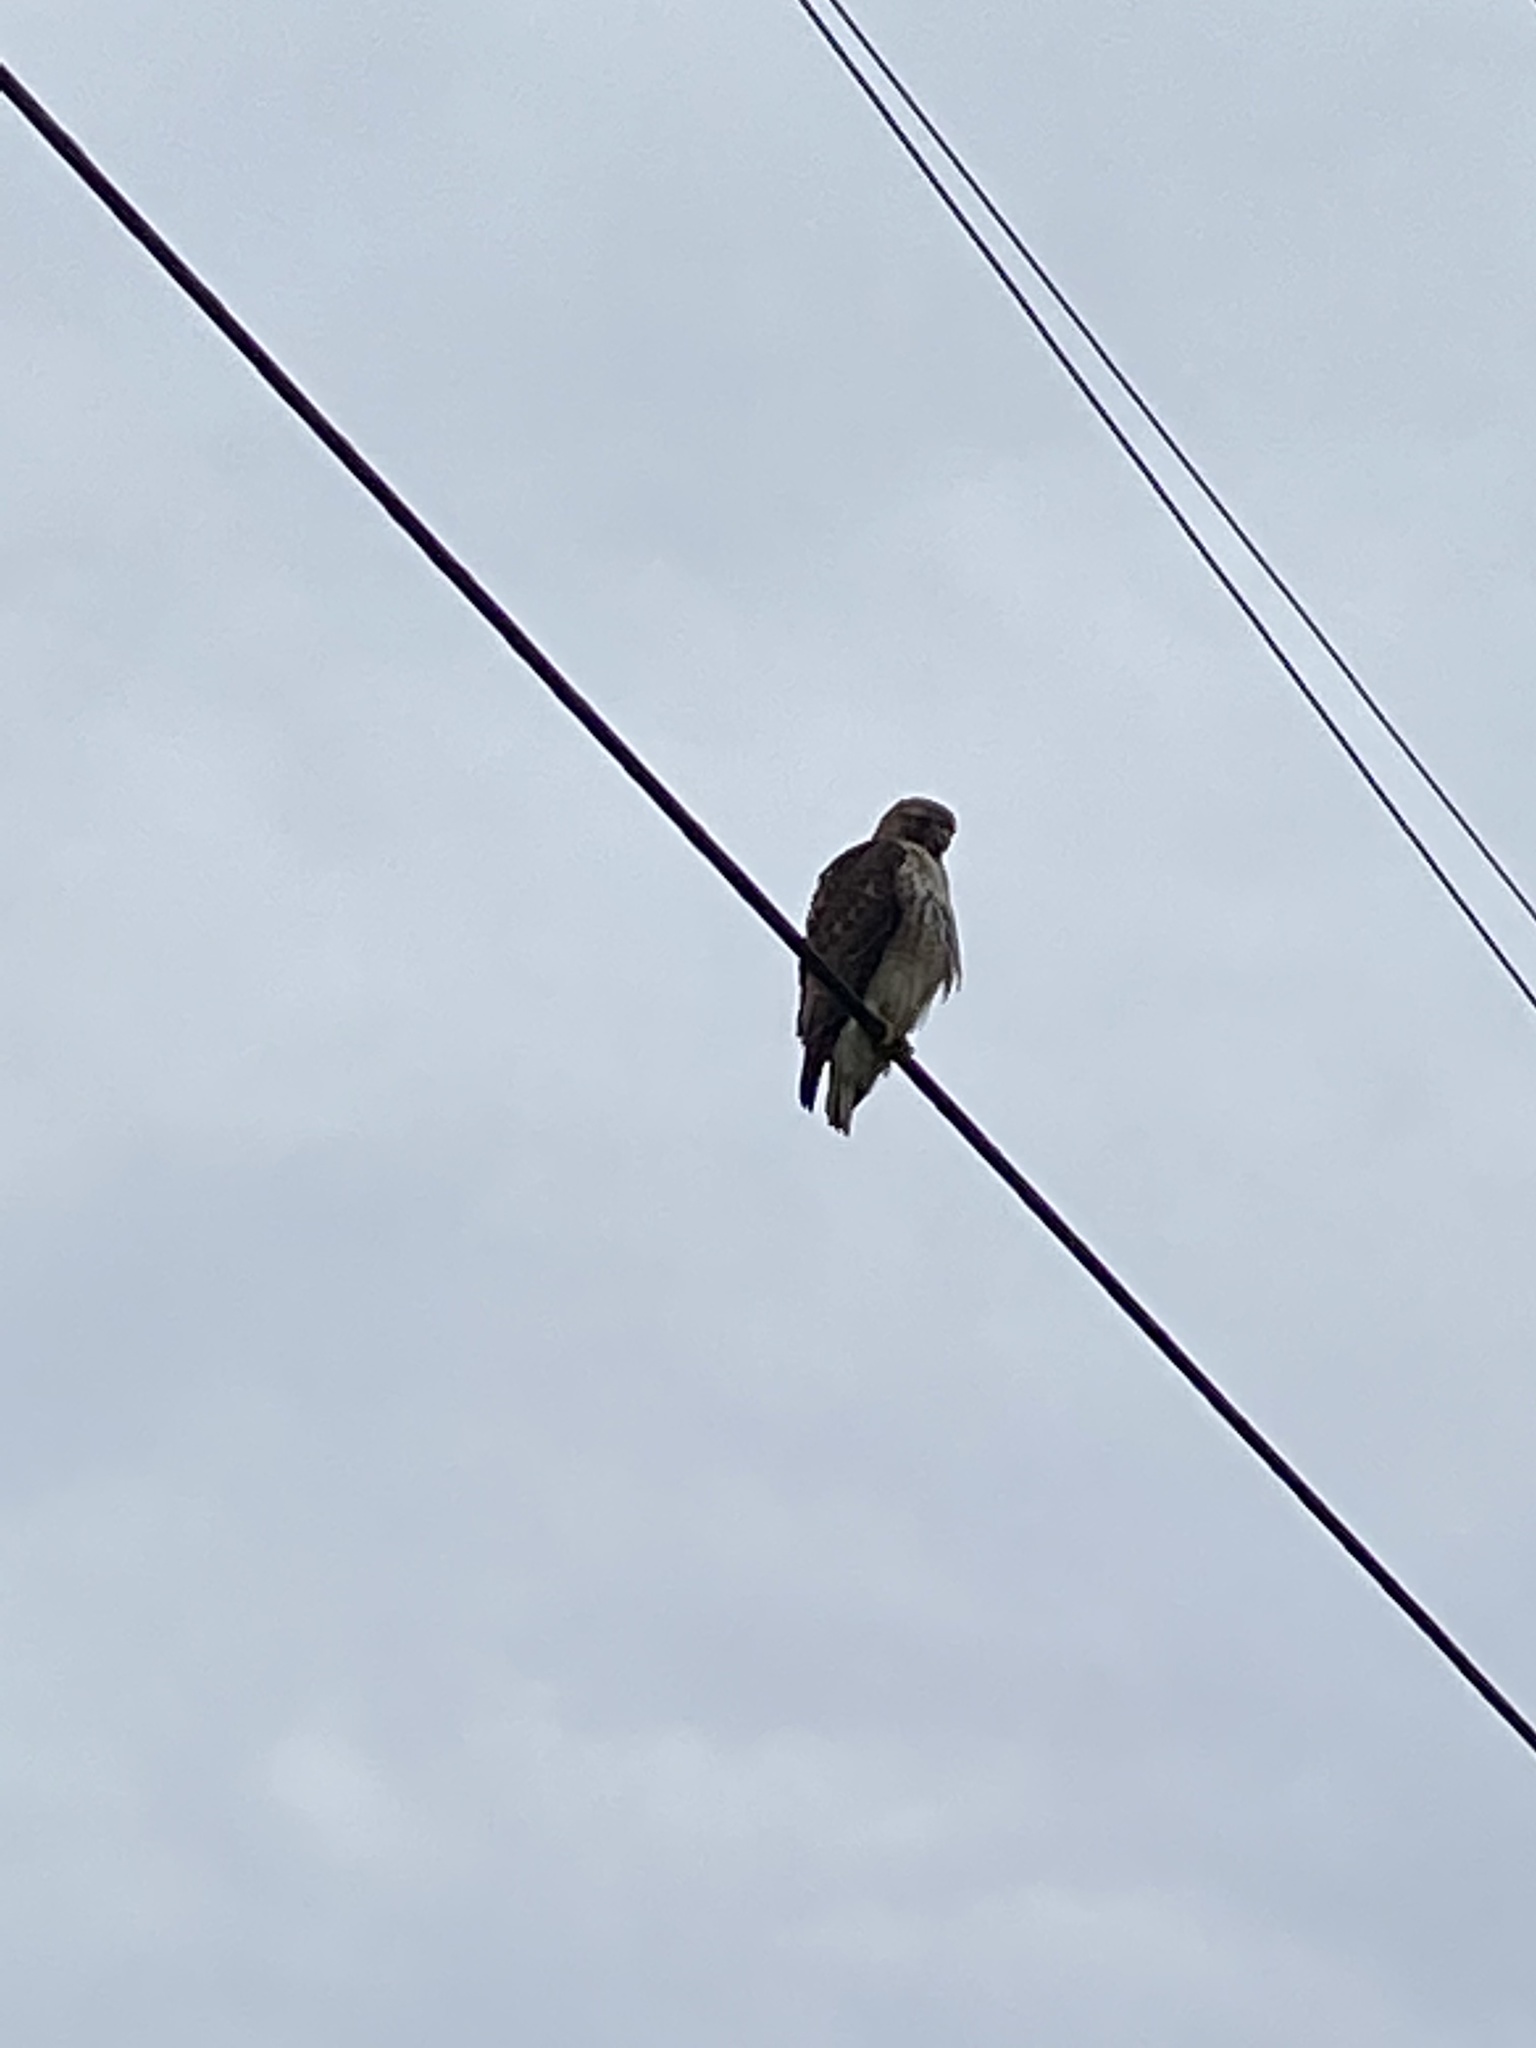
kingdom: Animalia
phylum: Chordata
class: Aves
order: Accipitriformes
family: Accipitridae
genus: Buteo
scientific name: Buteo jamaicensis
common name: Red-tailed hawk
